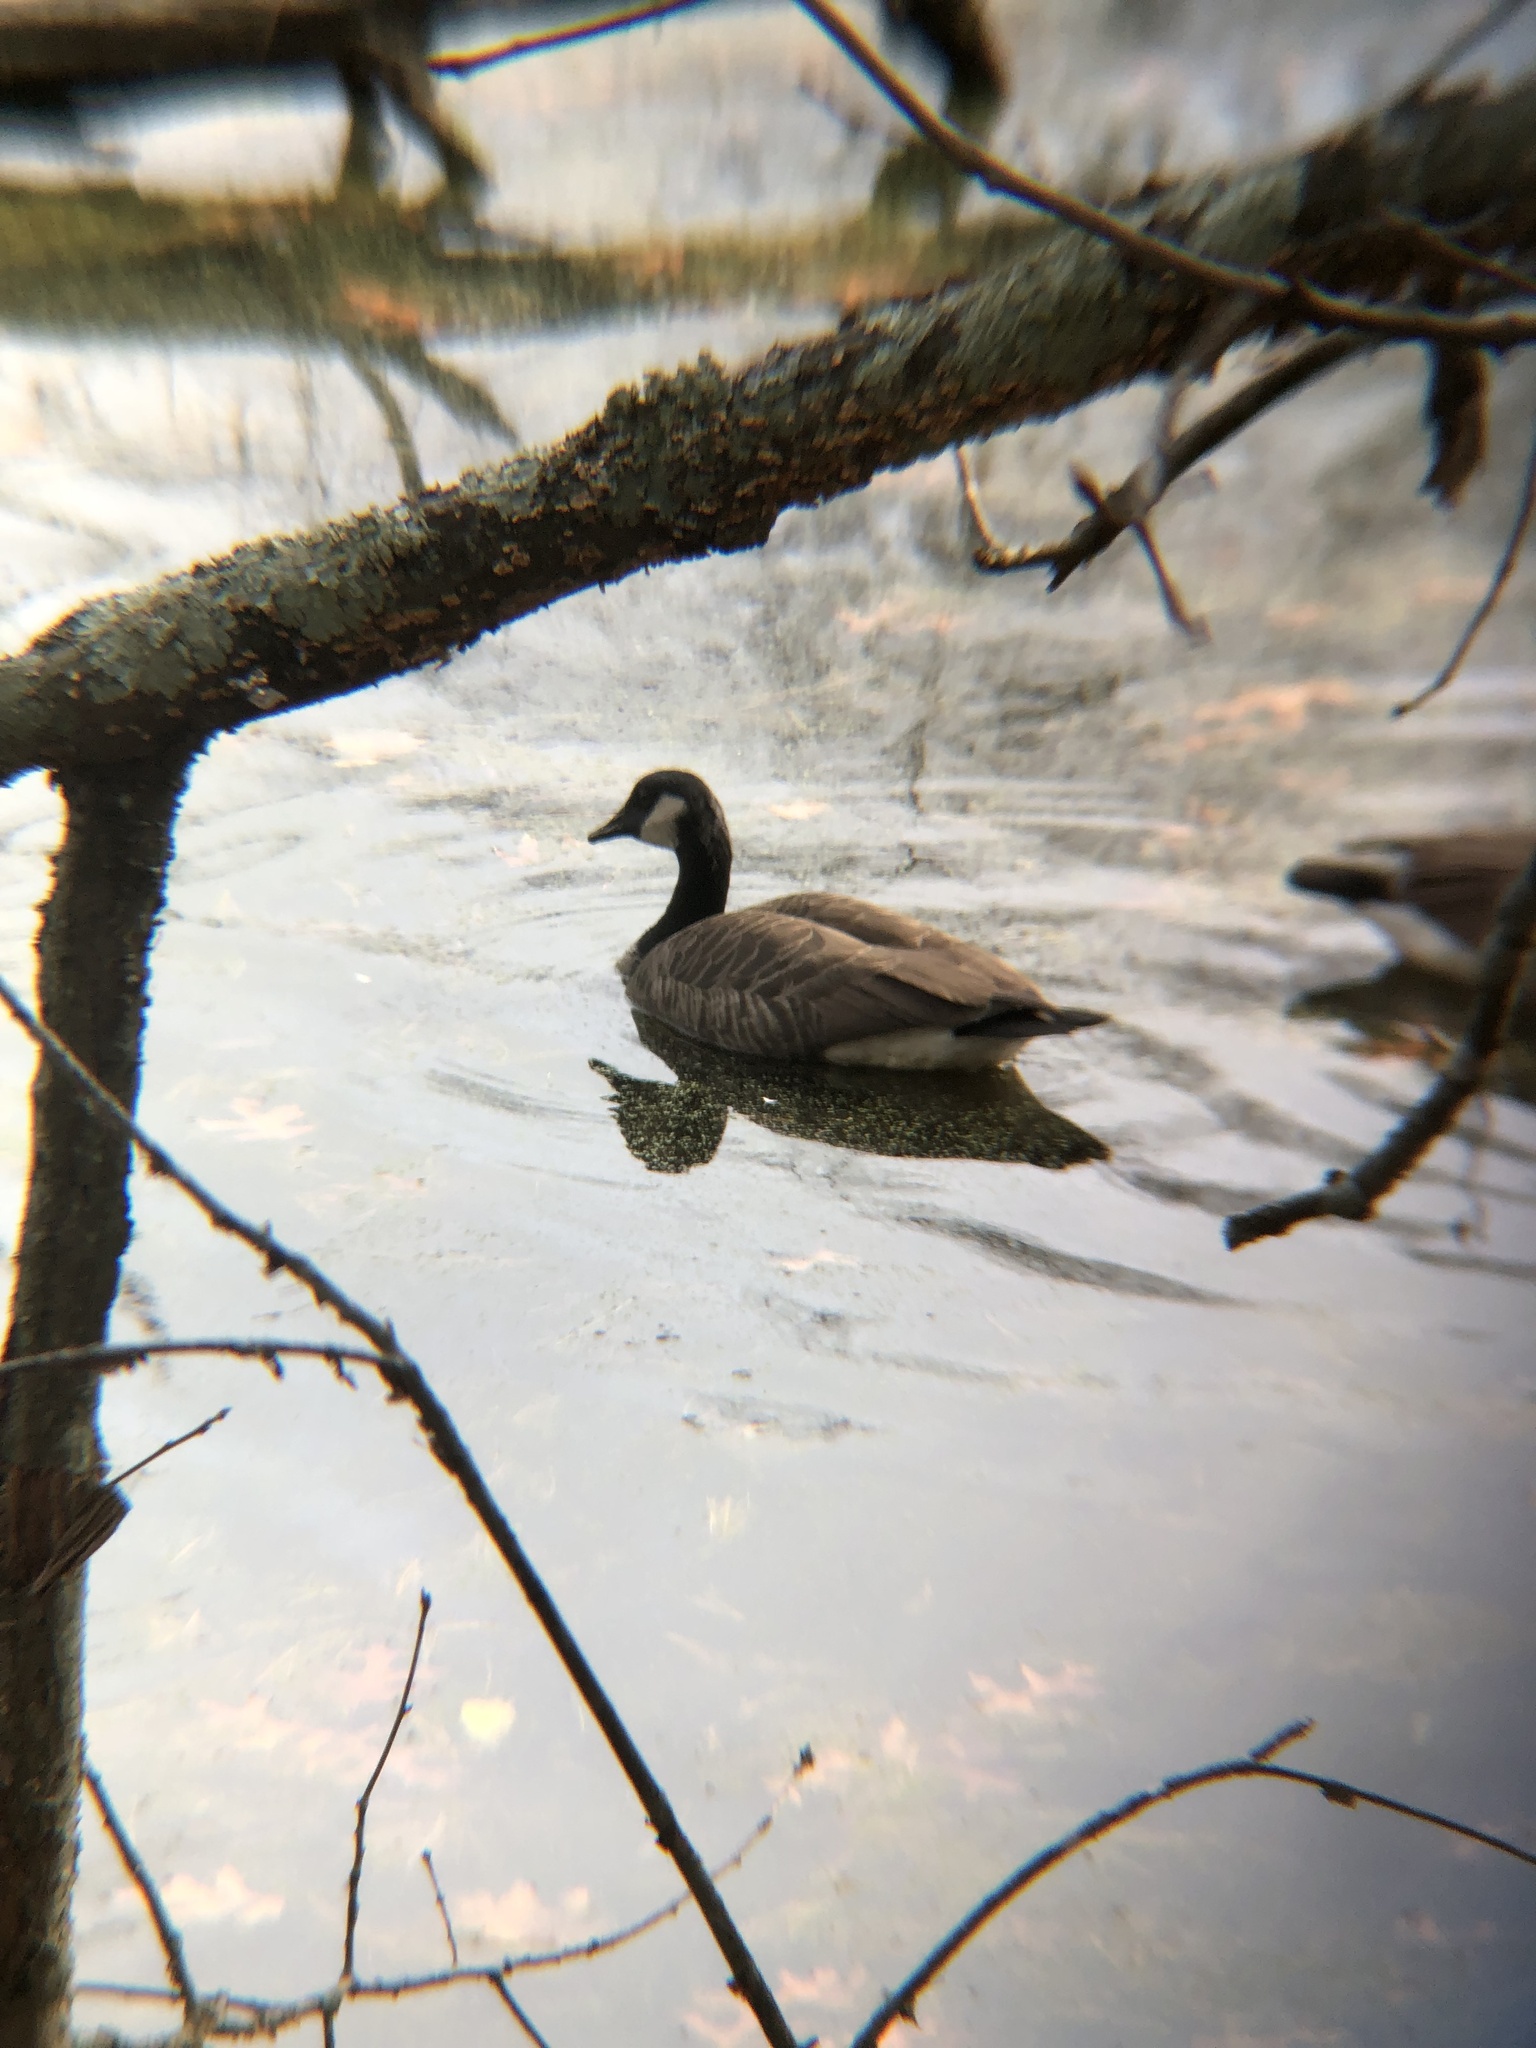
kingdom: Animalia
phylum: Chordata
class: Aves
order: Anseriformes
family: Anatidae
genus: Branta
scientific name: Branta canadensis
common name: Canada goose
